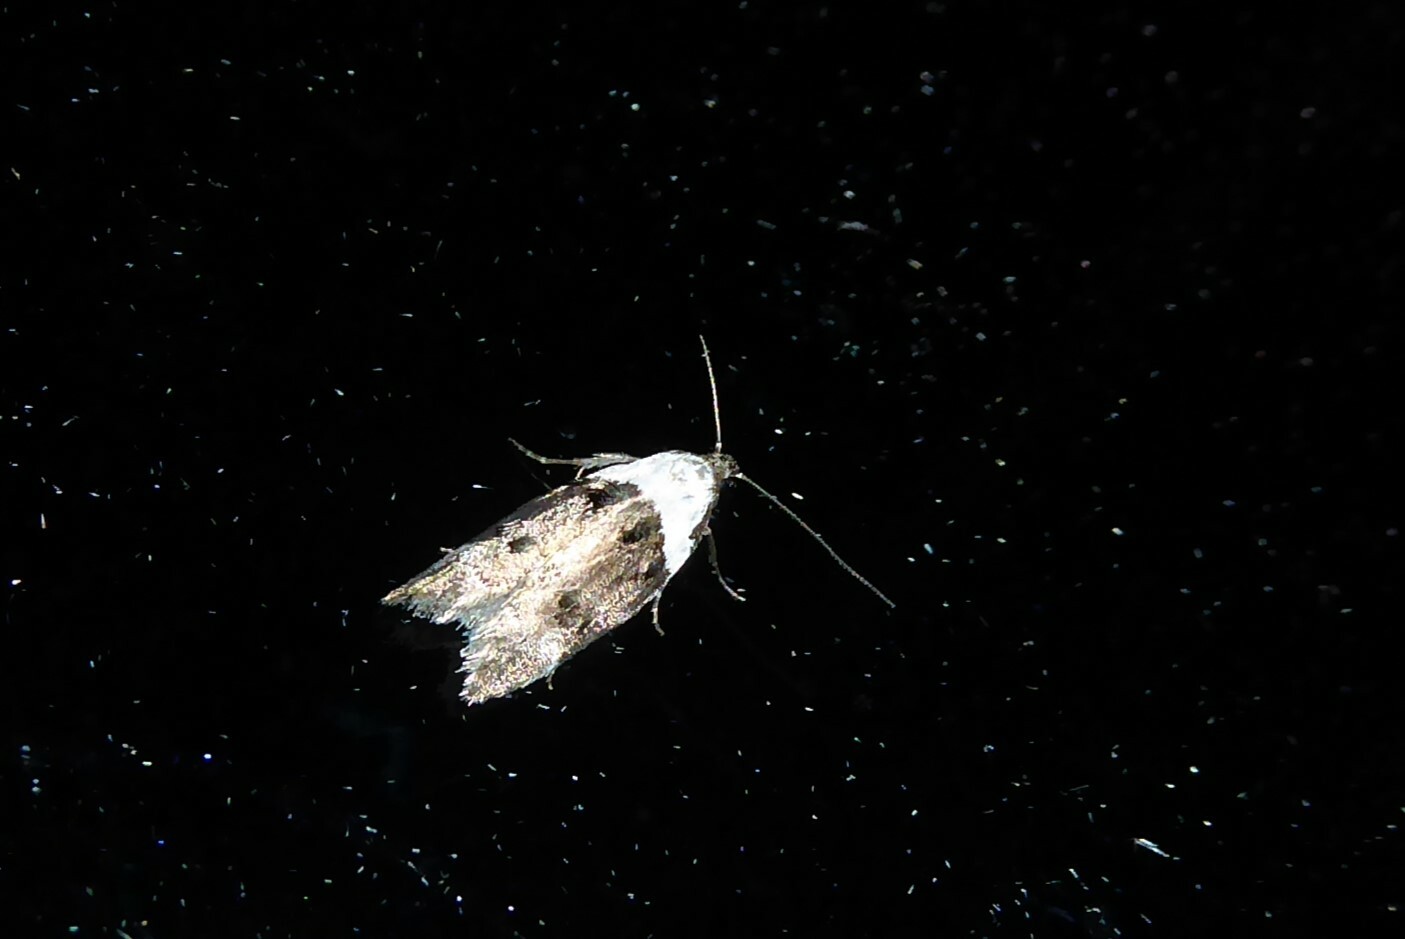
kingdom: Animalia
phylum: Arthropoda
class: Insecta
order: Lepidoptera
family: Oecophoridae
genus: Trachypepla
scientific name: Trachypepla conspicuella
